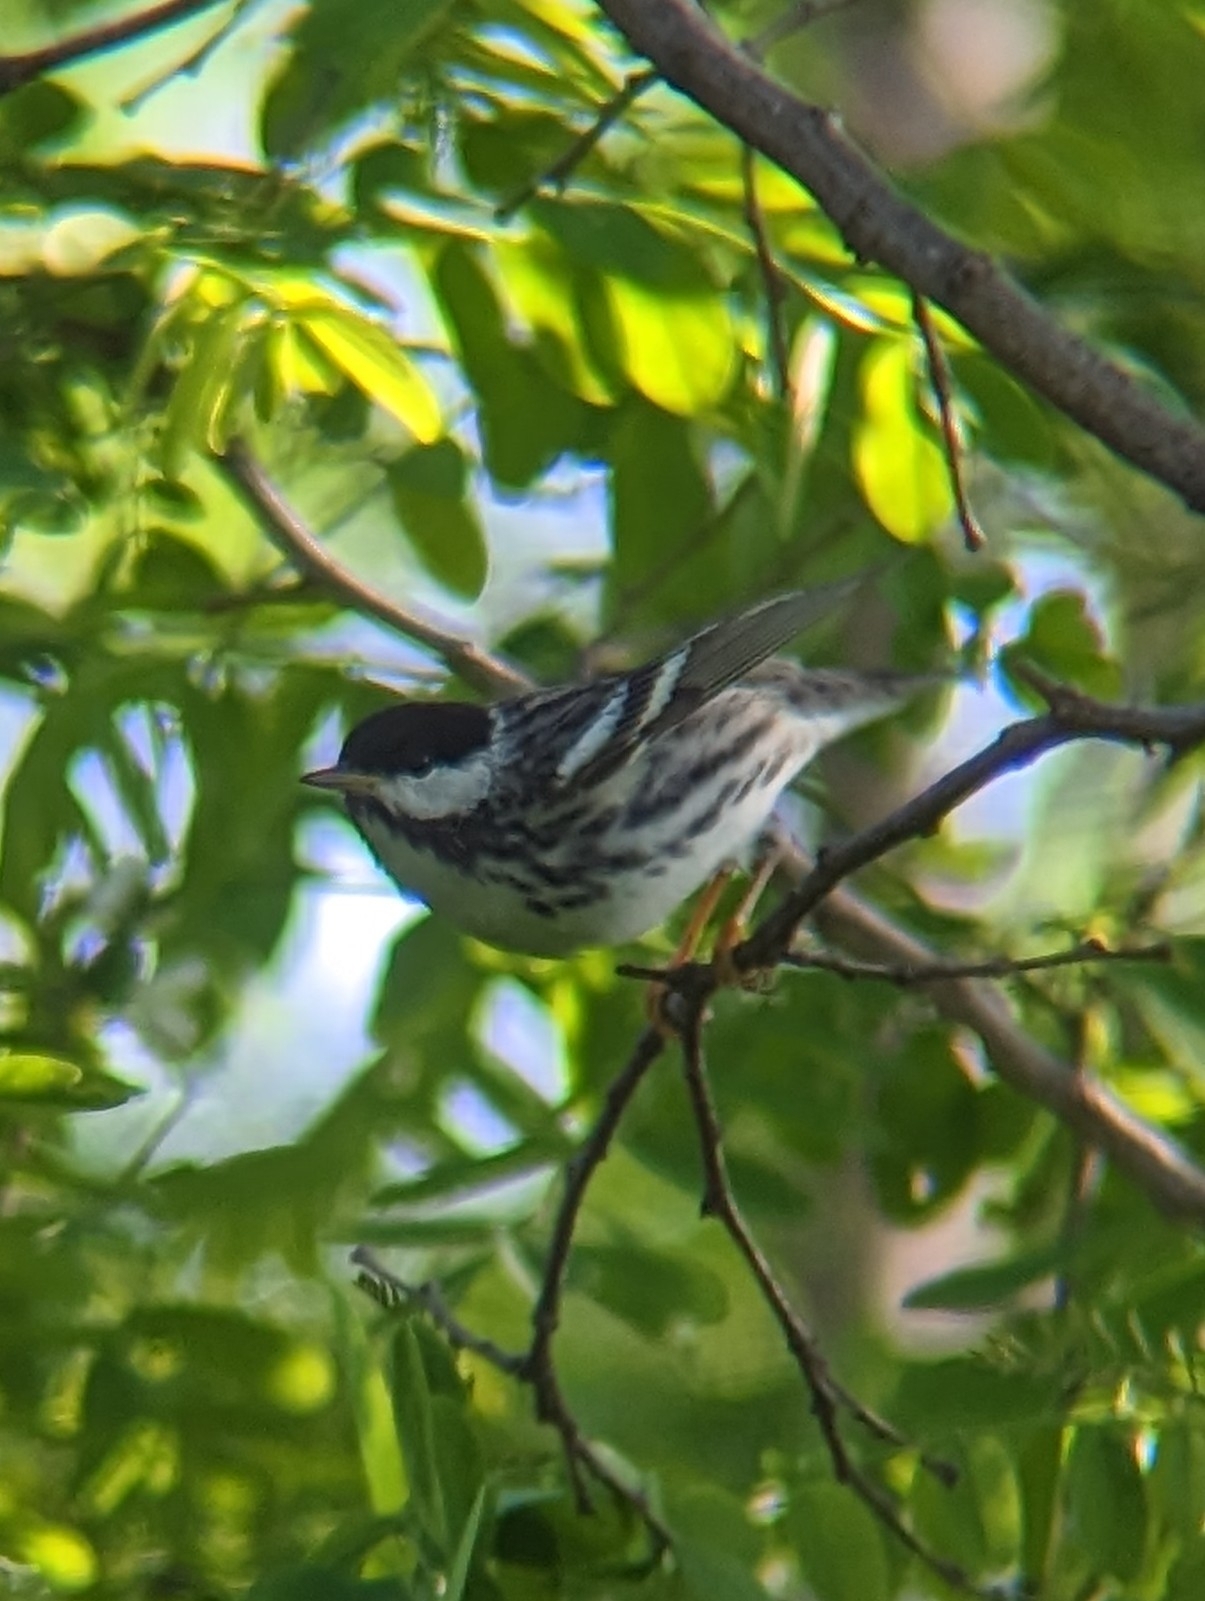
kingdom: Animalia
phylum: Chordata
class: Aves
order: Passeriformes
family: Parulidae
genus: Setophaga
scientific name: Setophaga striata
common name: Blackpoll warbler
